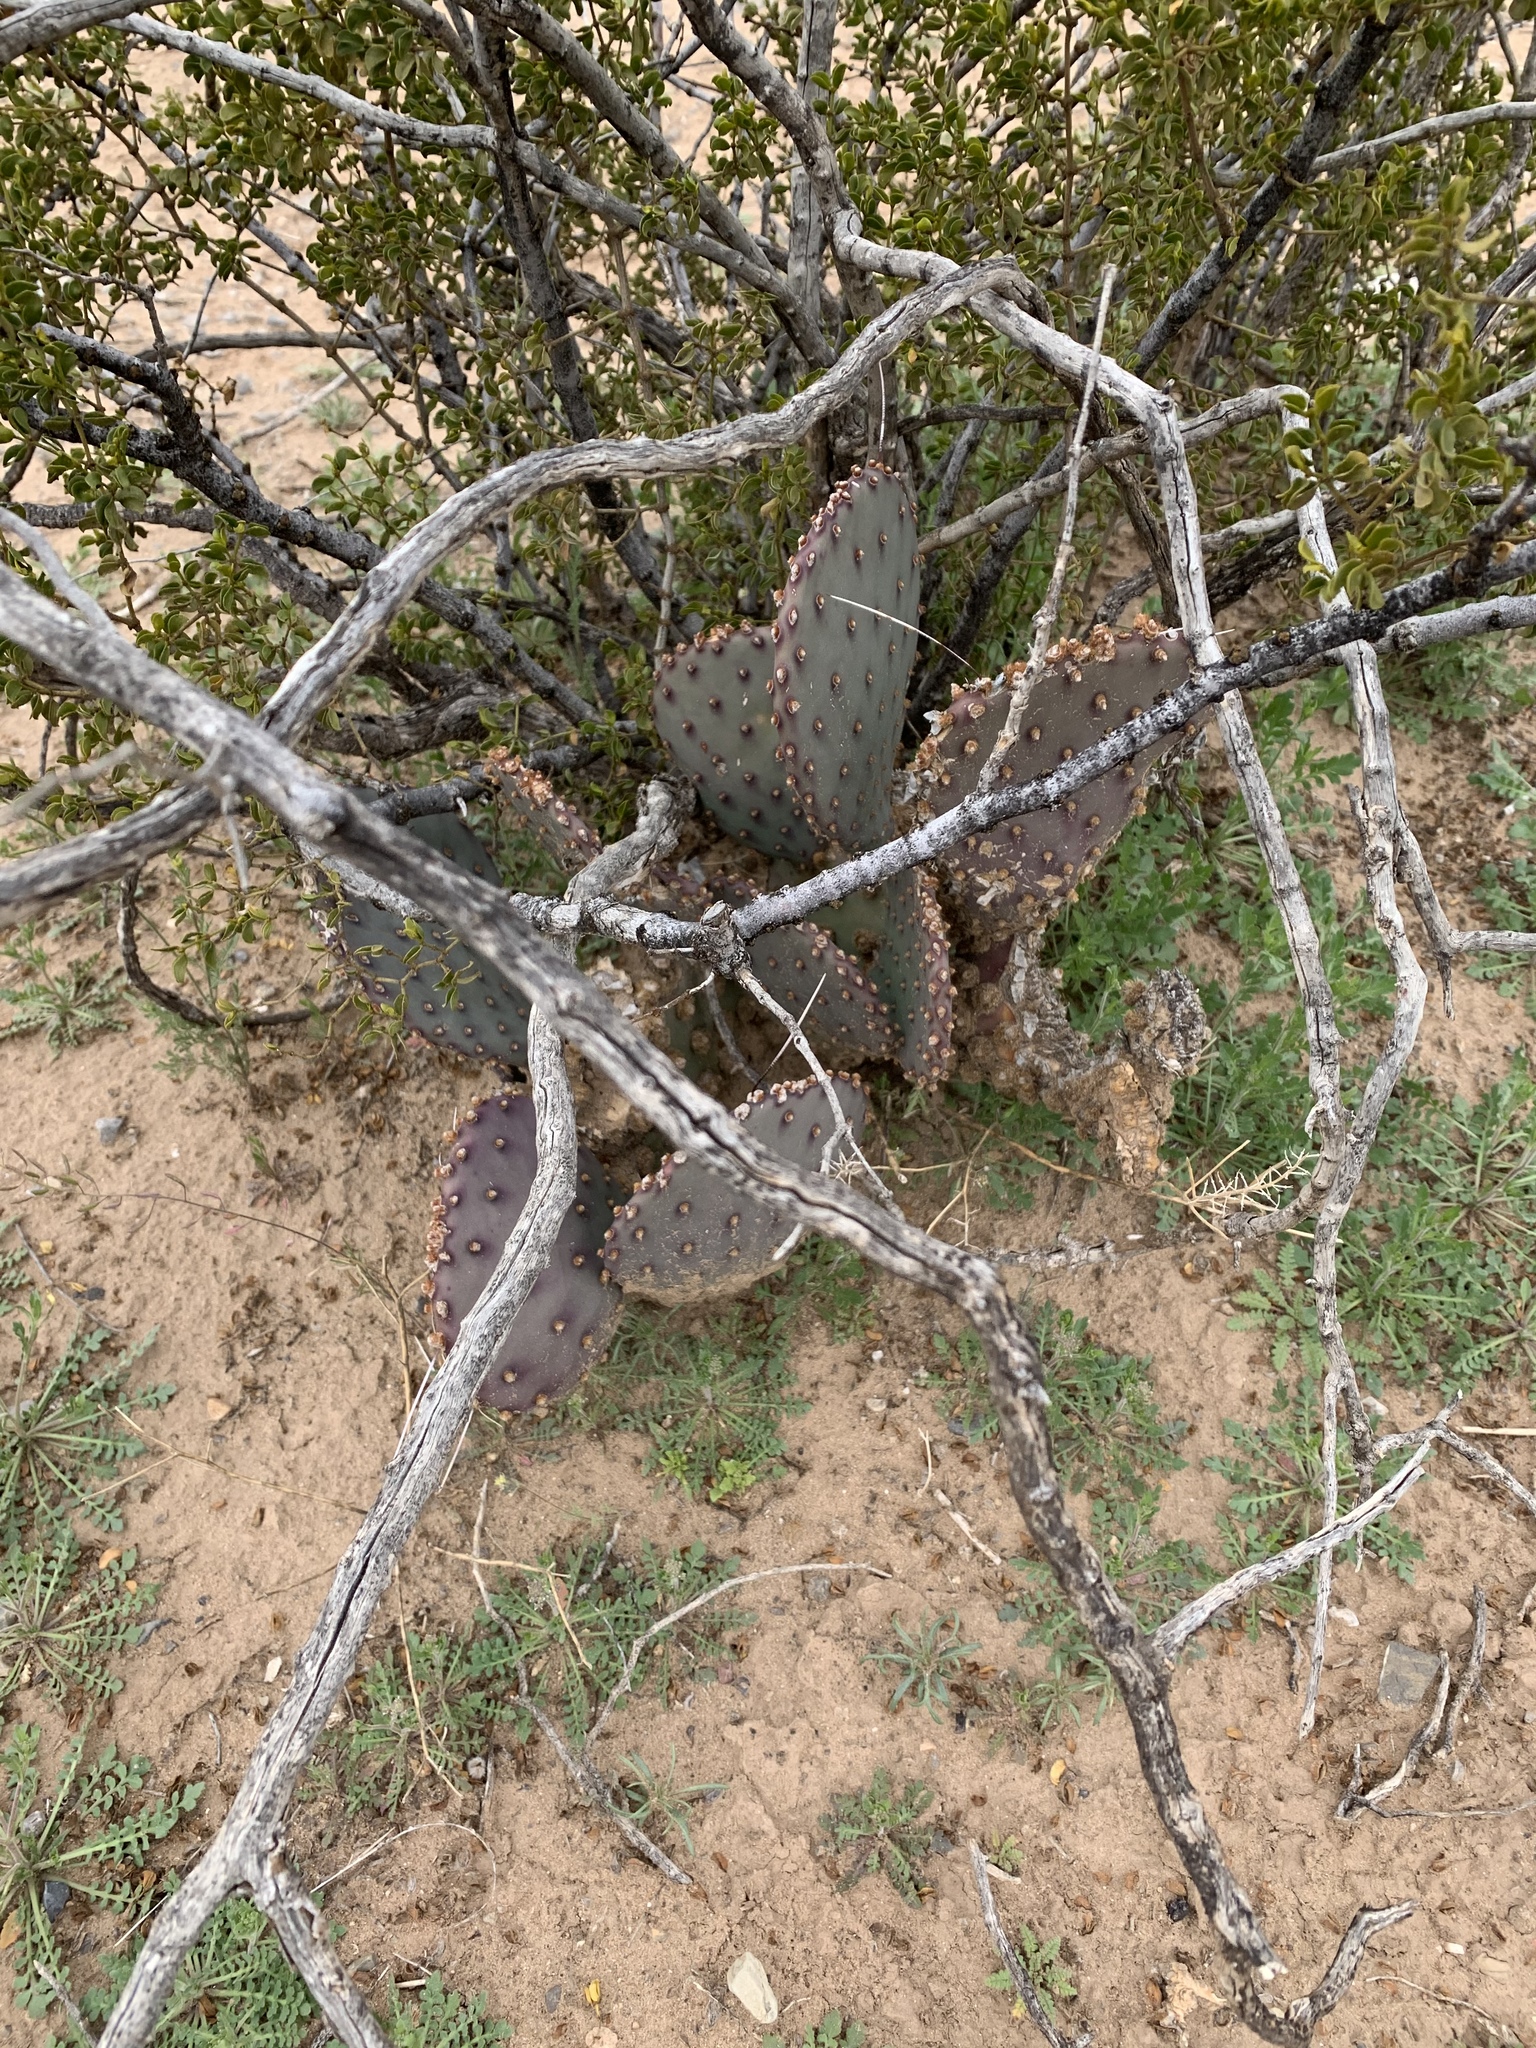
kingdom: Plantae
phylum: Tracheophyta
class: Magnoliopsida
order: Caryophyllales
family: Cactaceae
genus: Opuntia
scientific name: Opuntia macrocentra
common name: Purple prickly-pear
